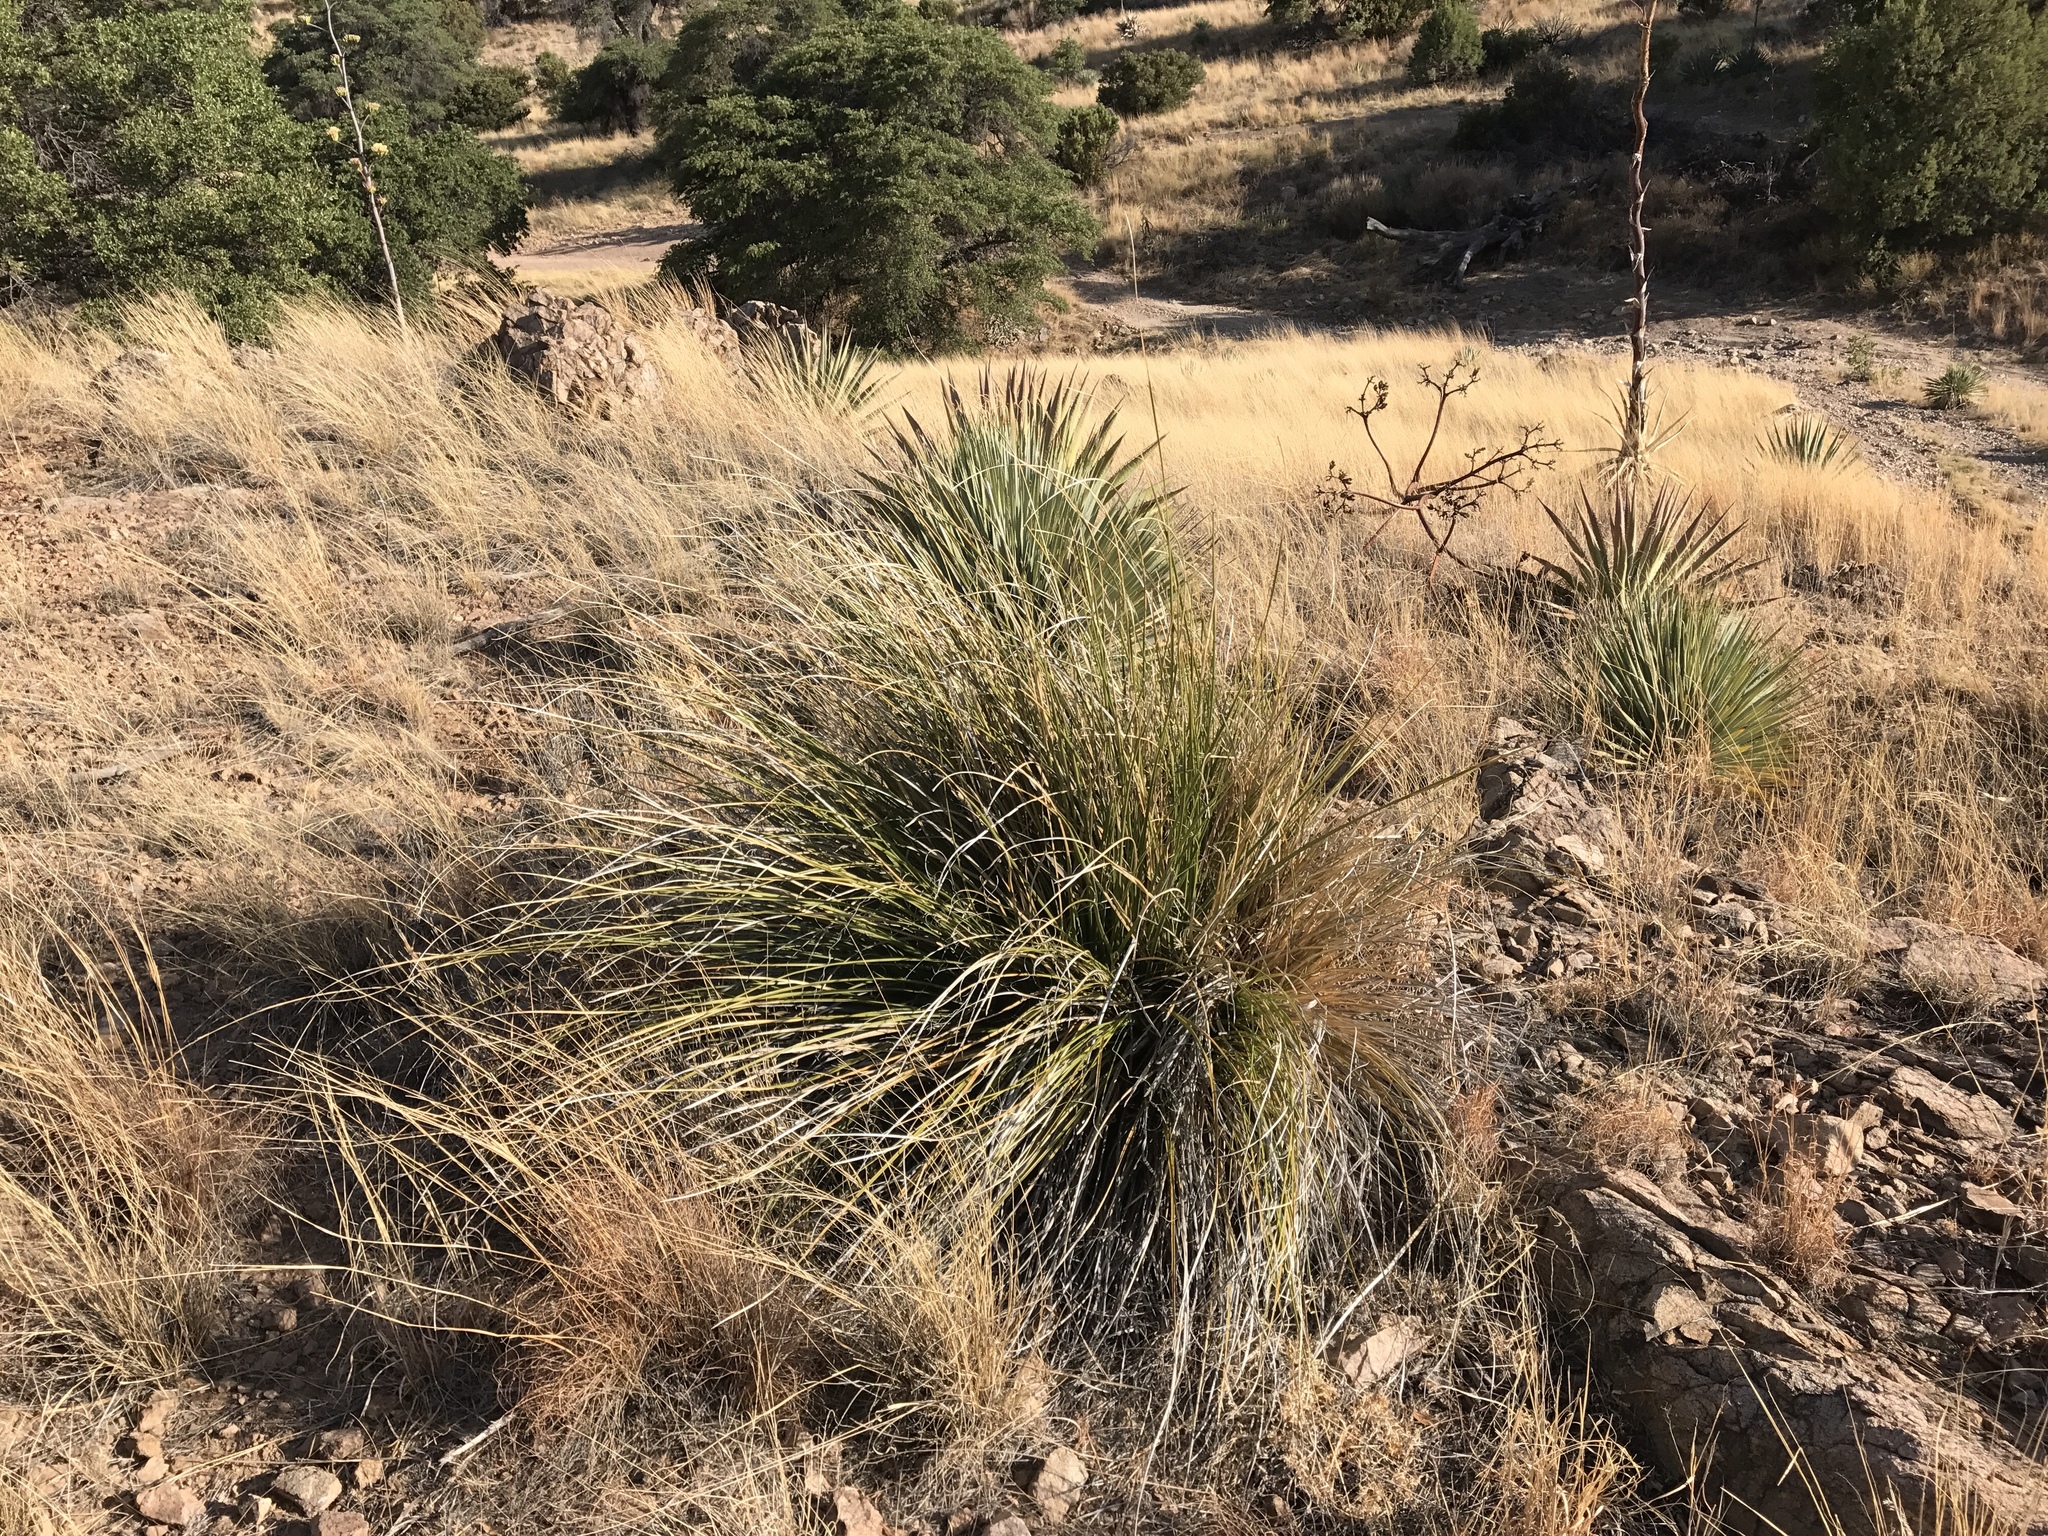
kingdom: Plantae
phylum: Tracheophyta
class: Liliopsida
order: Asparagales
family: Asparagaceae
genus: Nolina
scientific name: Nolina microcarpa
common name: Bear-grass
